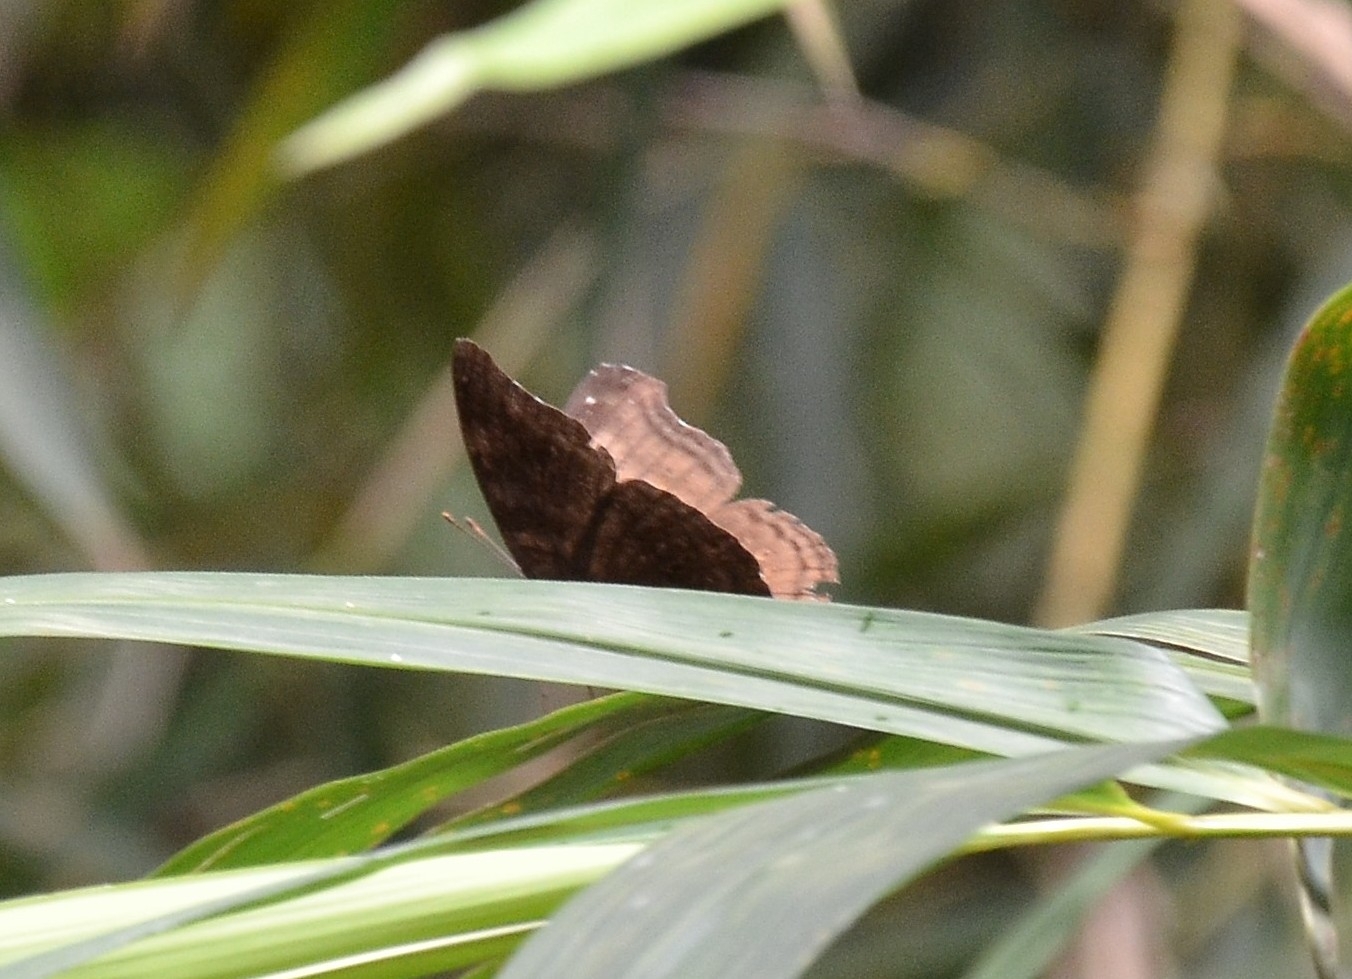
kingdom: Animalia
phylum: Arthropoda
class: Insecta
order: Lepidoptera
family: Nymphalidae
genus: Junonia
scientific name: Junonia iphita
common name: Chocolate pansy
